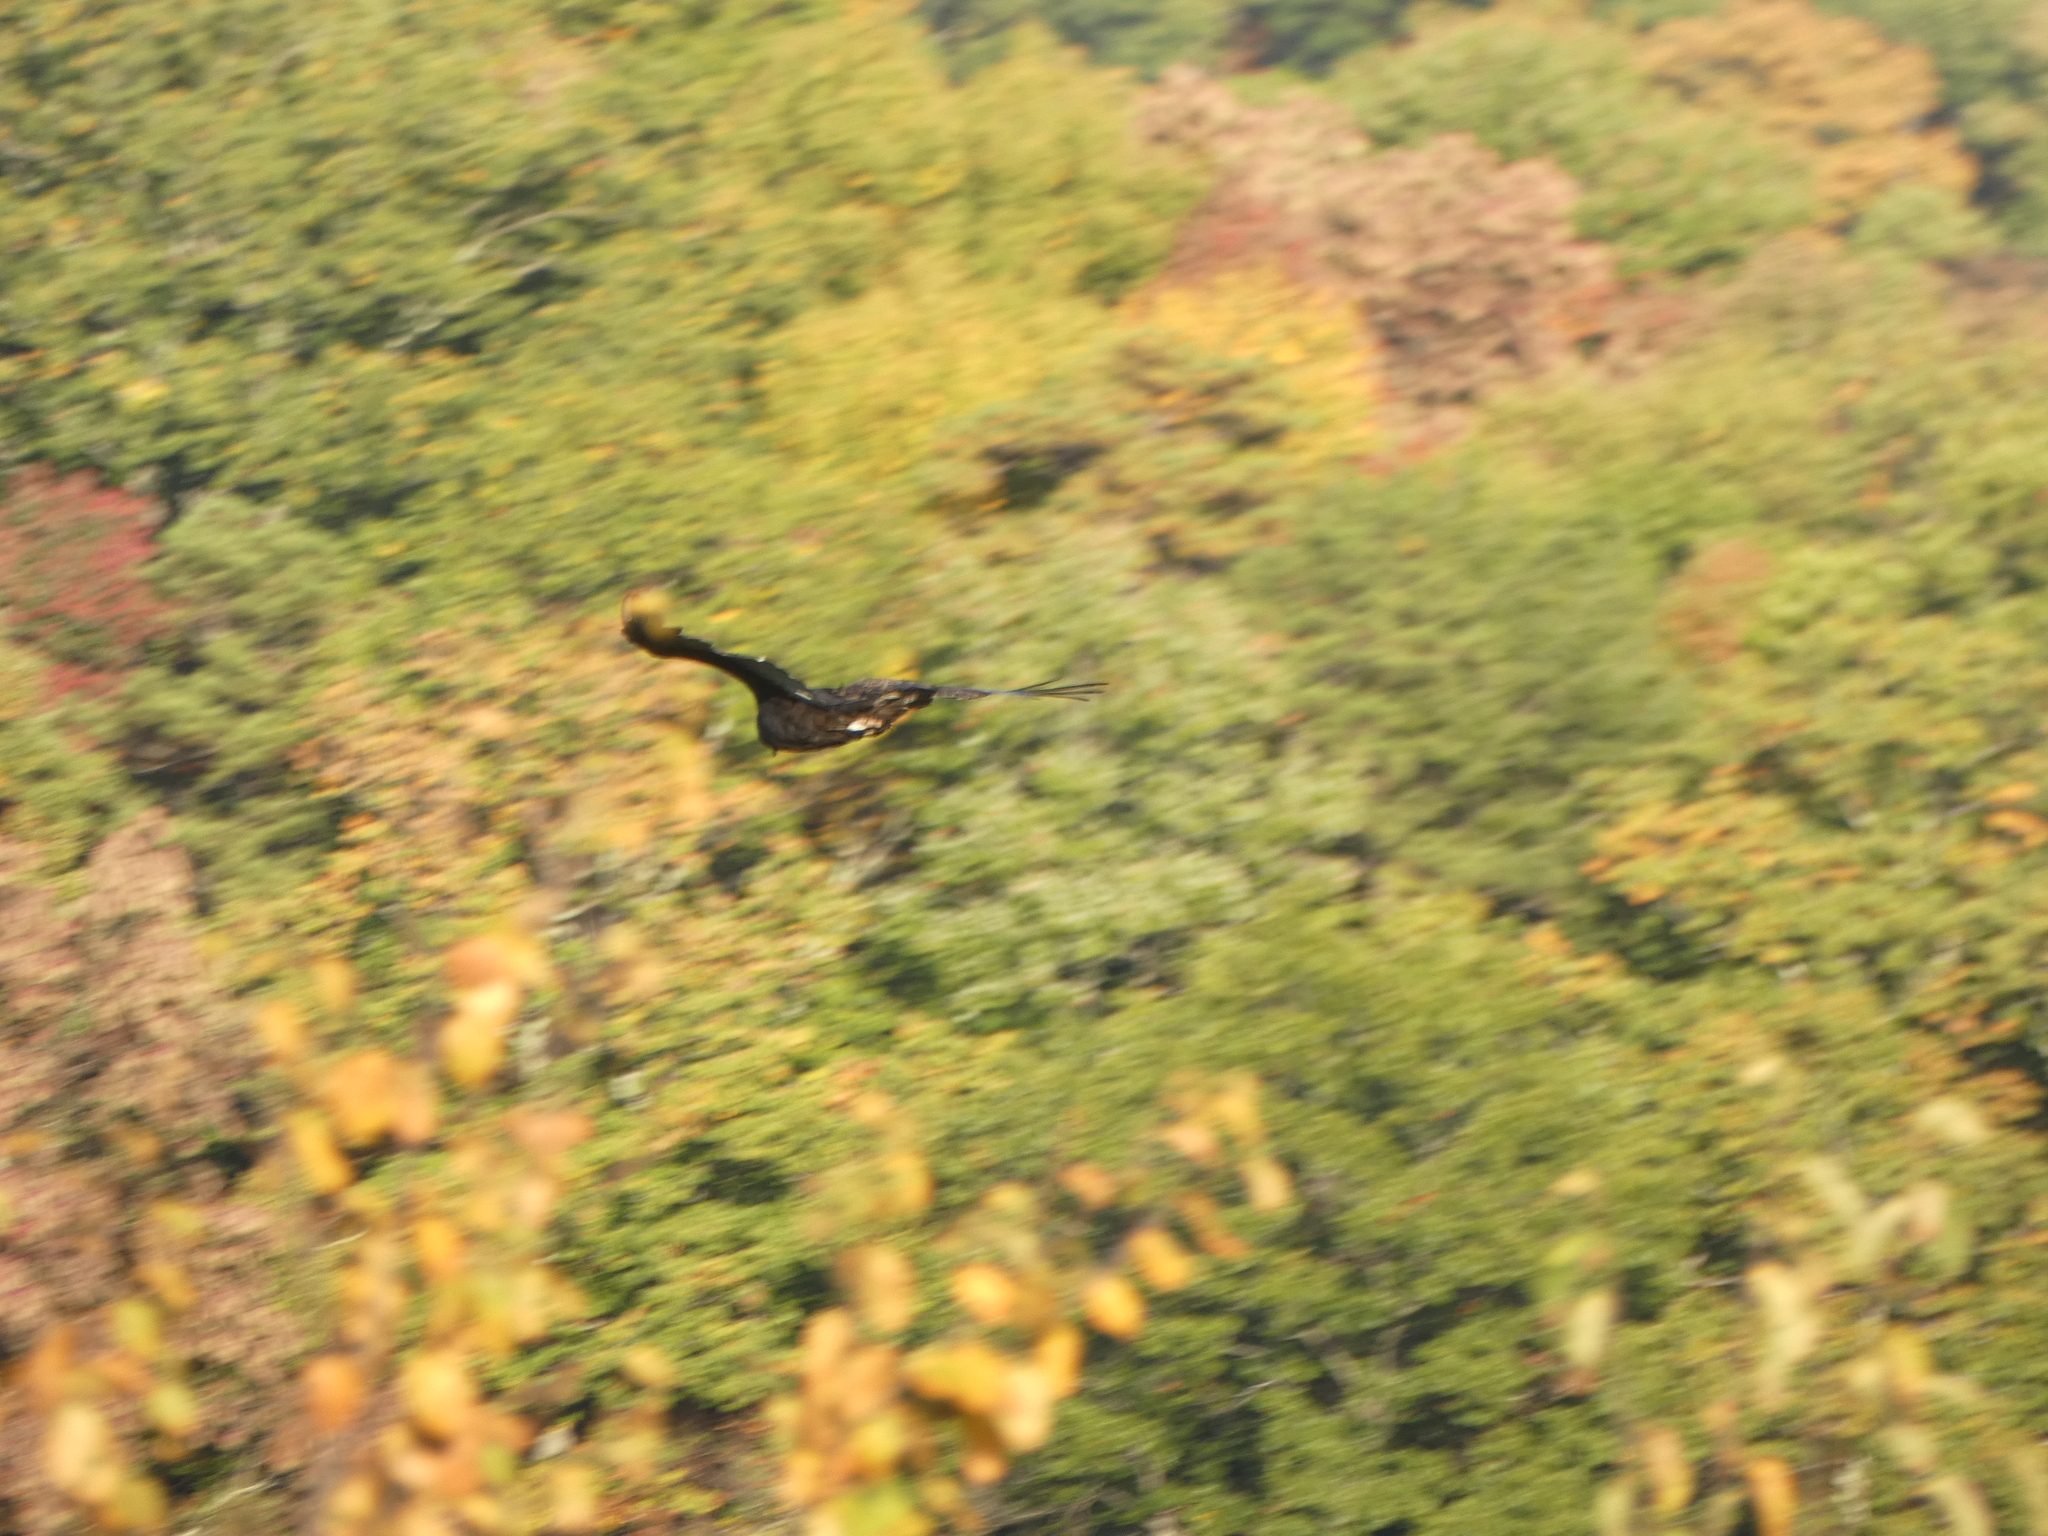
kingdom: Animalia
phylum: Chordata
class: Aves
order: Accipitriformes
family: Cathartidae
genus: Cathartes
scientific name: Cathartes aura
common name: Turkey vulture
